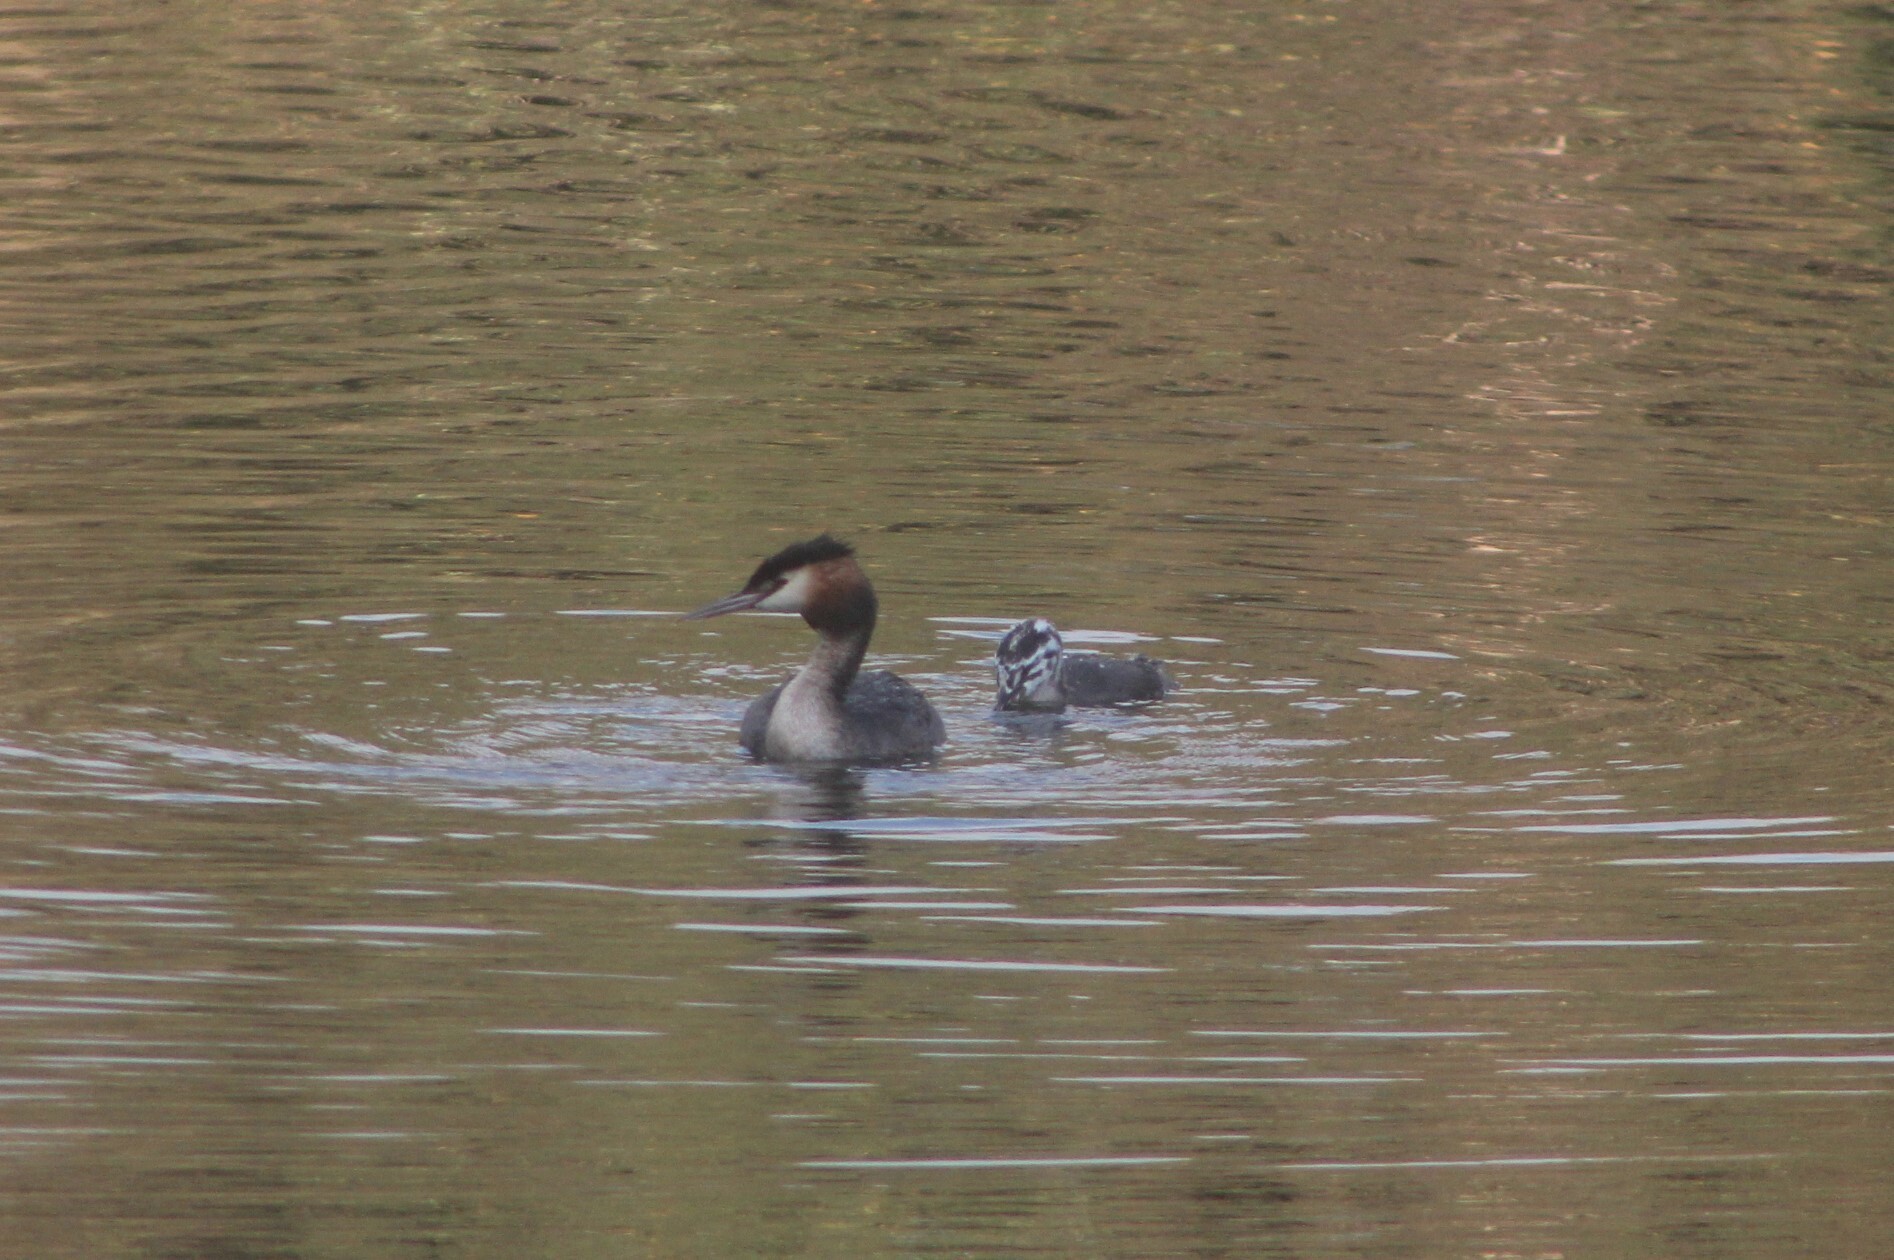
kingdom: Animalia
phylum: Chordata
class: Aves
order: Podicipediformes
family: Podicipedidae
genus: Podiceps
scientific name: Podiceps cristatus
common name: Great crested grebe
